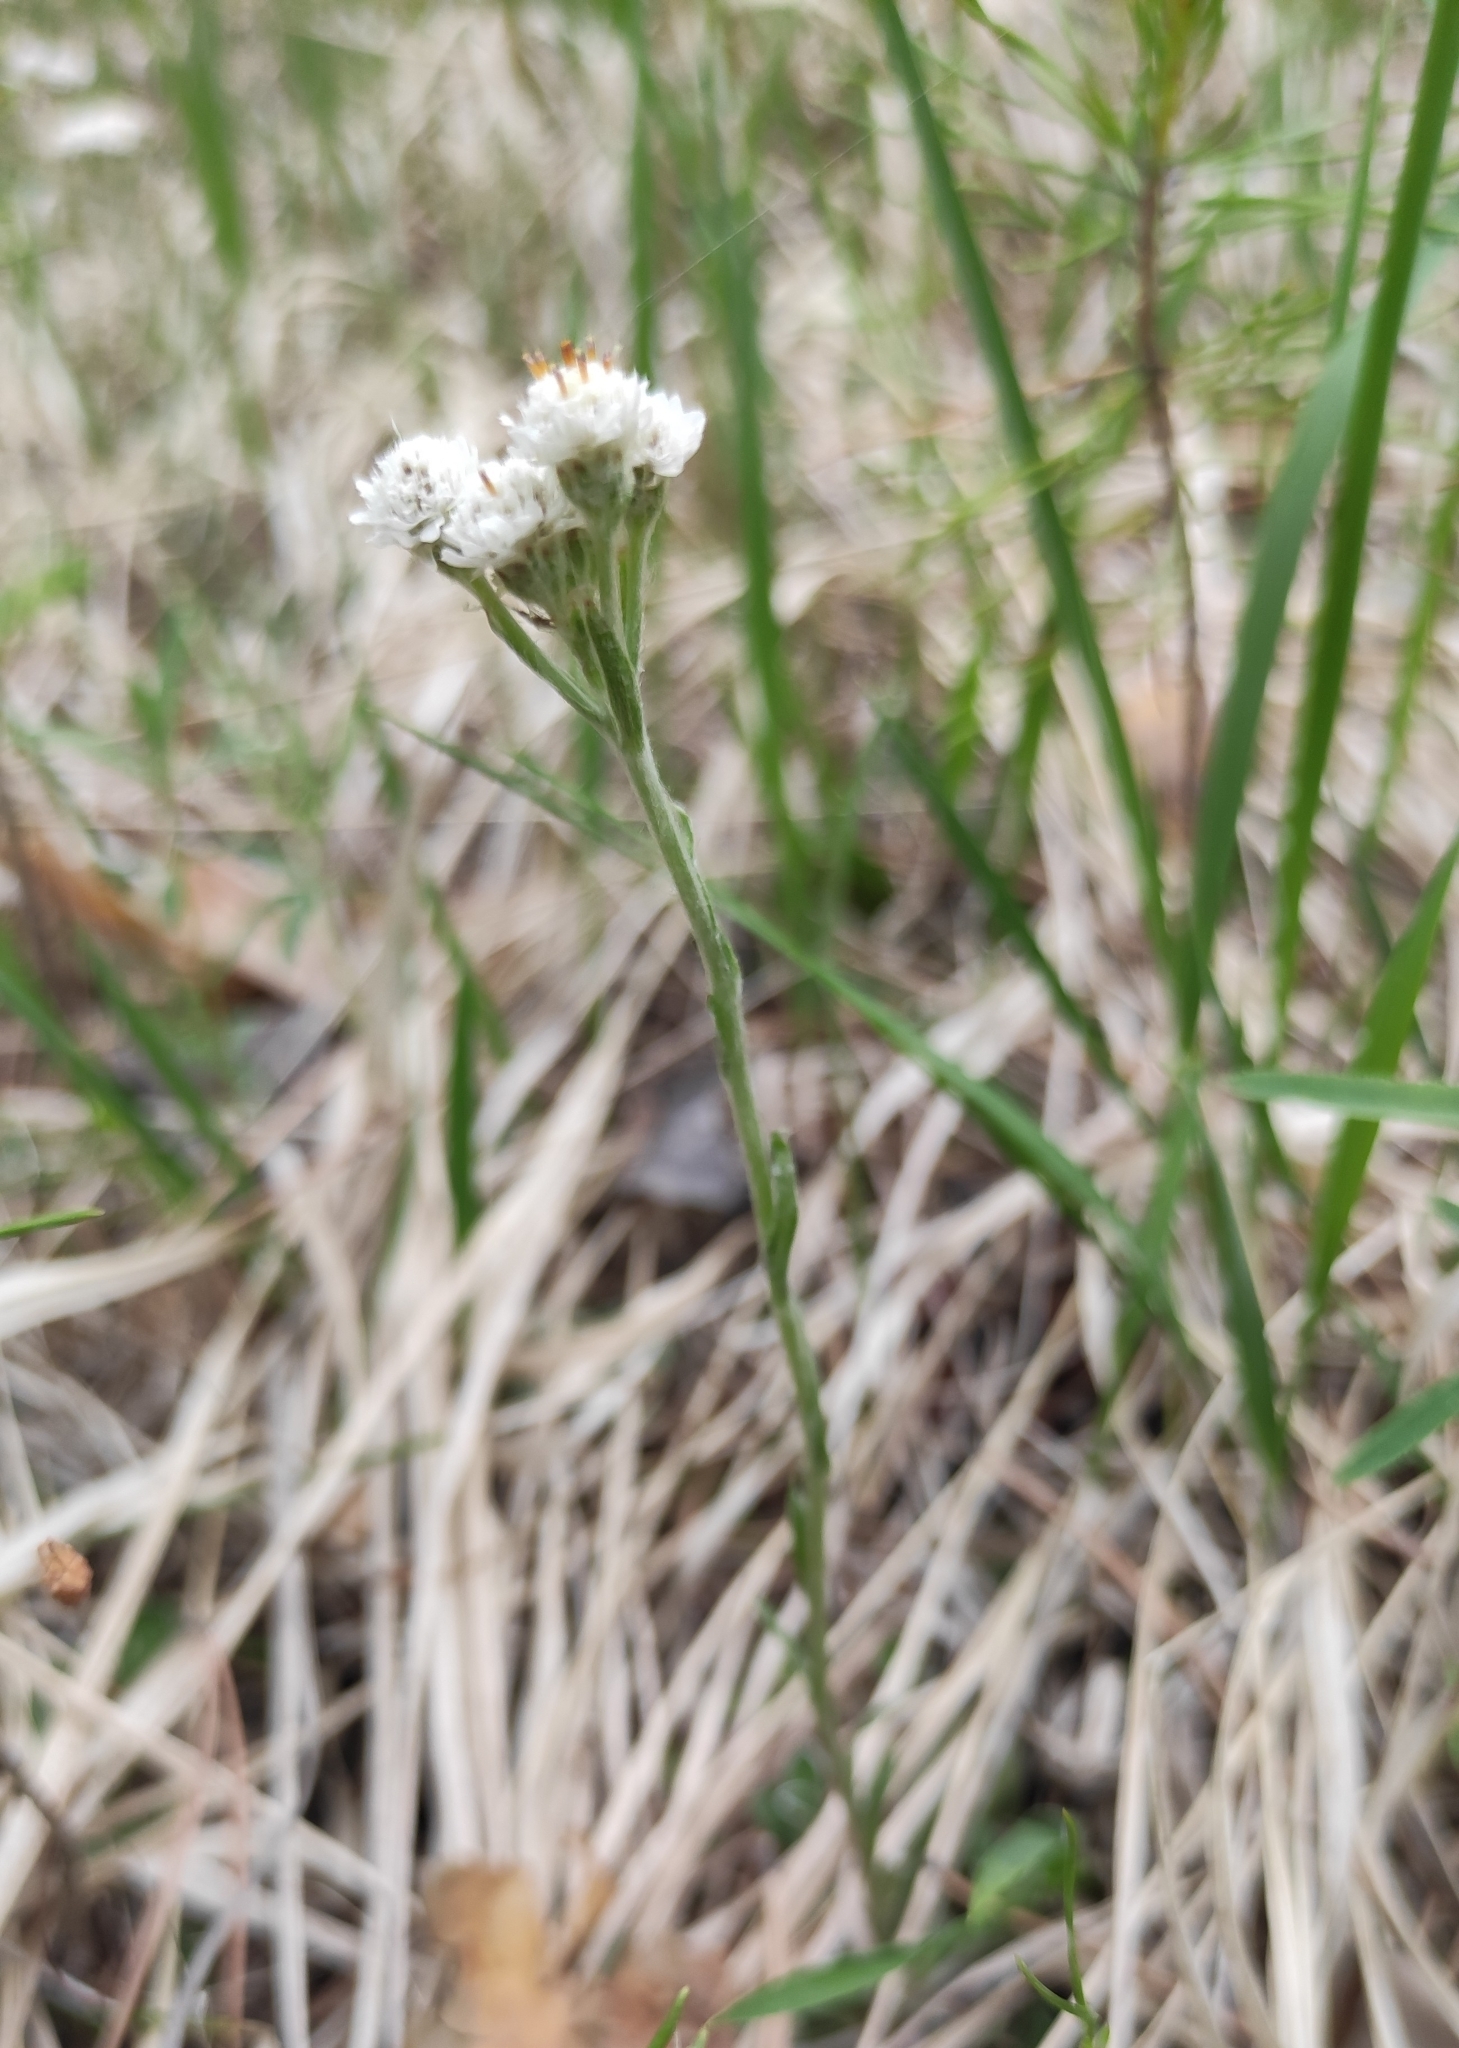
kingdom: Plantae
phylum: Tracheophyta
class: Magnoliopsida
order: Asterales
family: Asteraceae
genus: Antennaria
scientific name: Antennaria dioica
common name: Mountain everlasting
